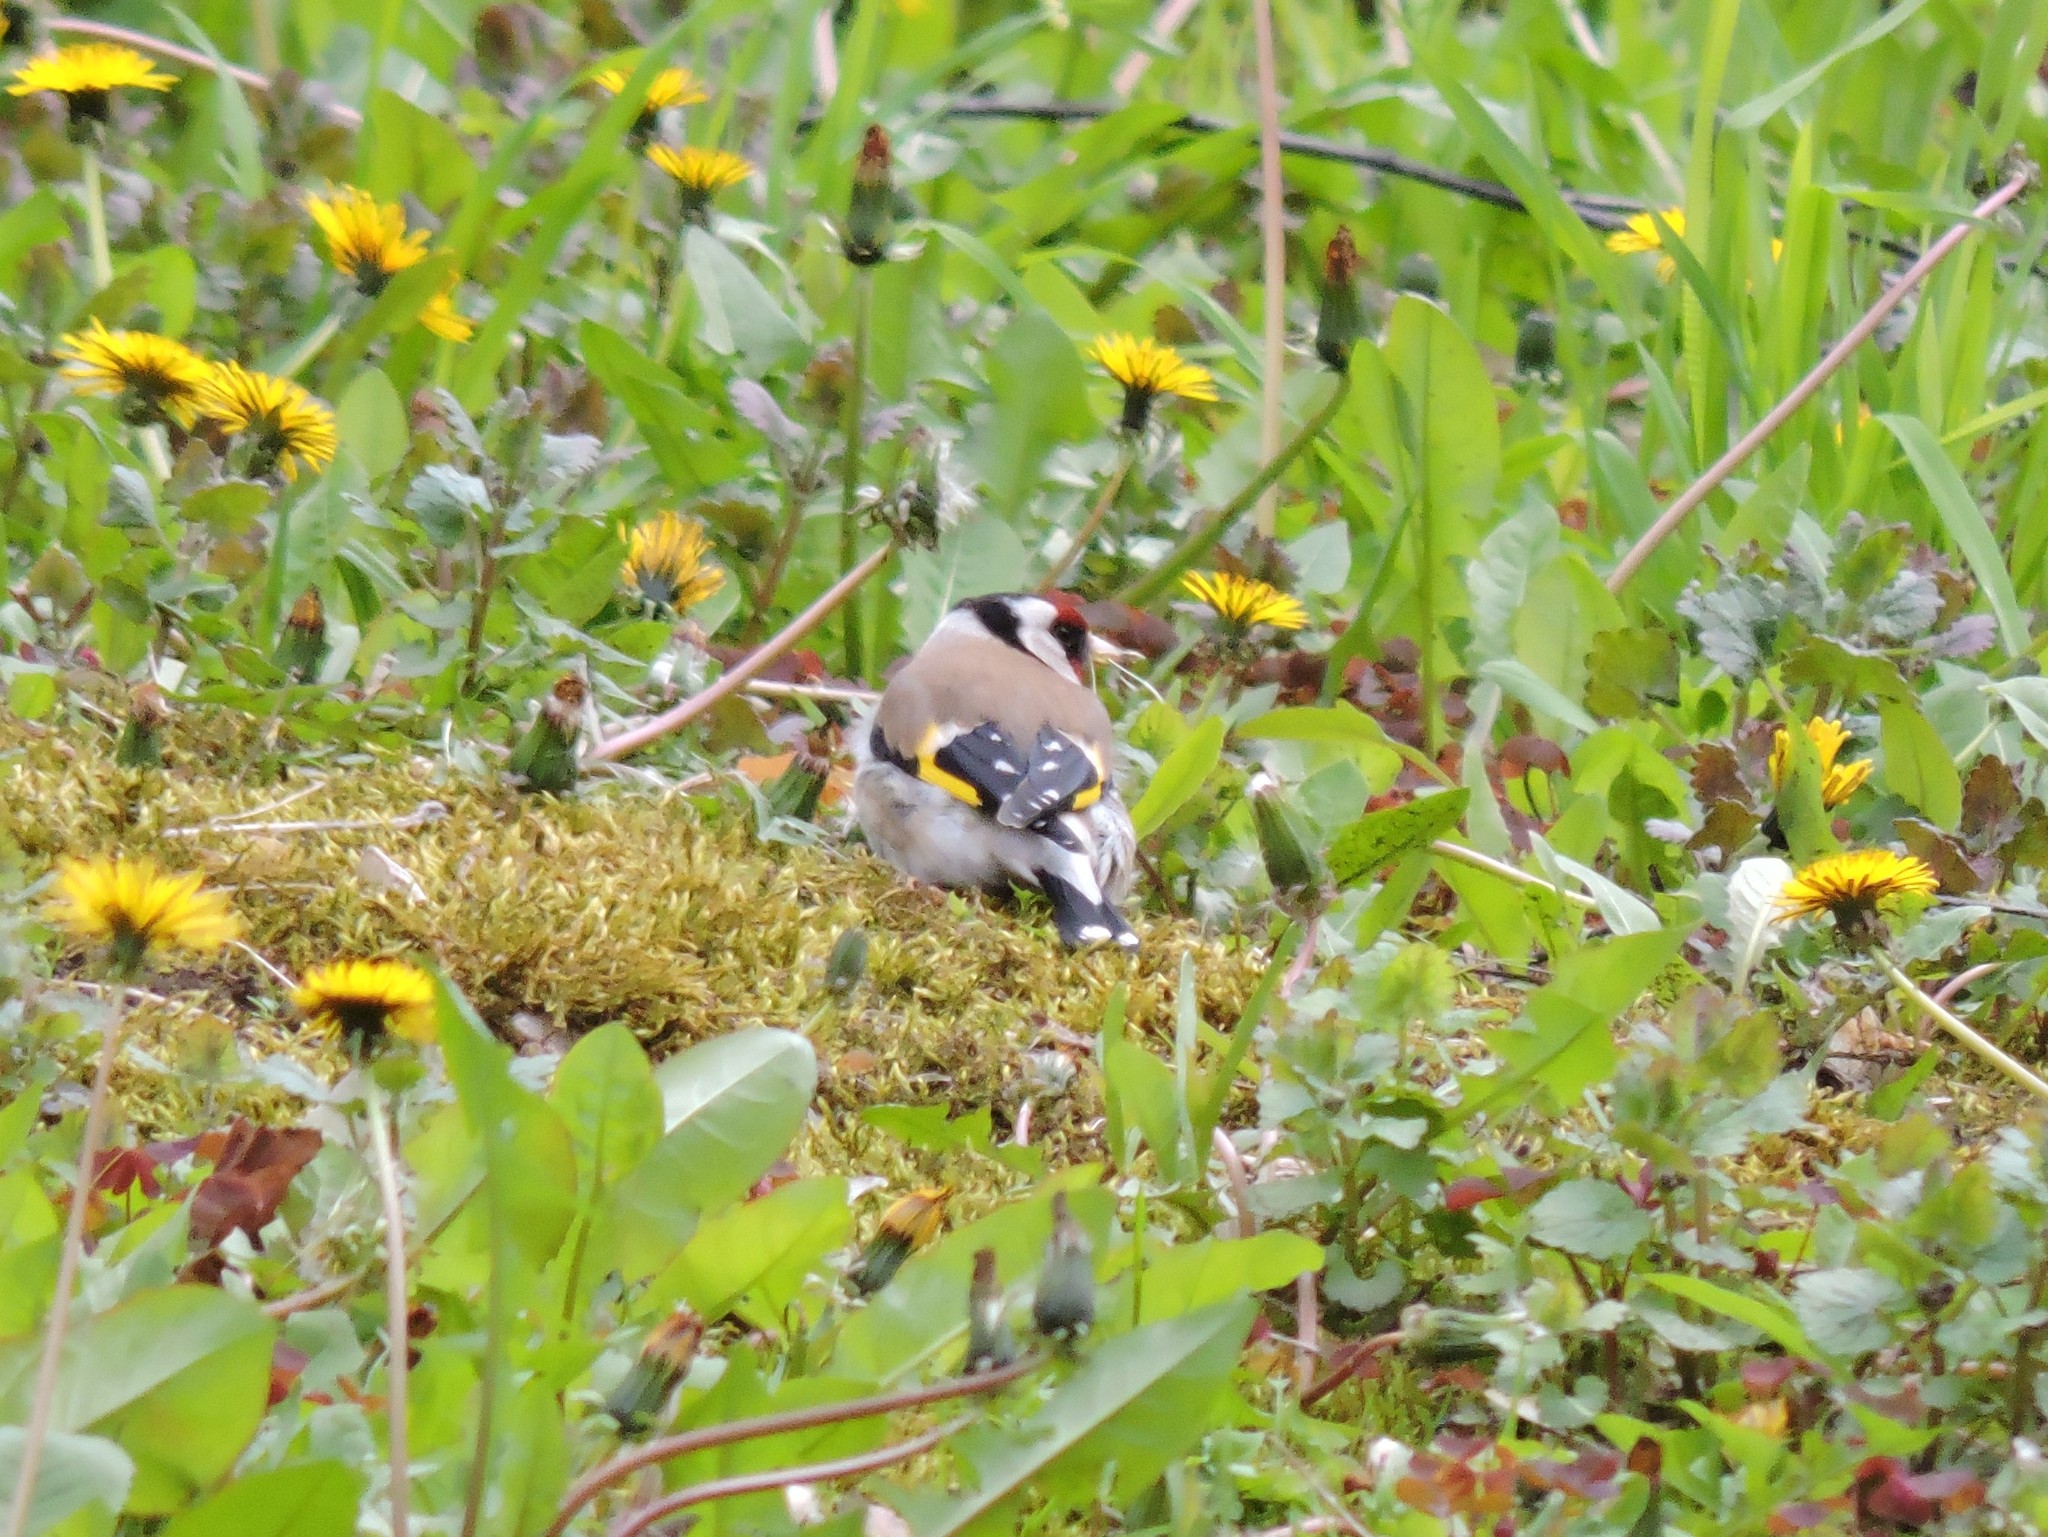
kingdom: Animalia
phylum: Chordata
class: Aves
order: Passeriformes
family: Fringillidae
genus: Carduelis
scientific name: Carduelis carduelis
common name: European goldfinch
